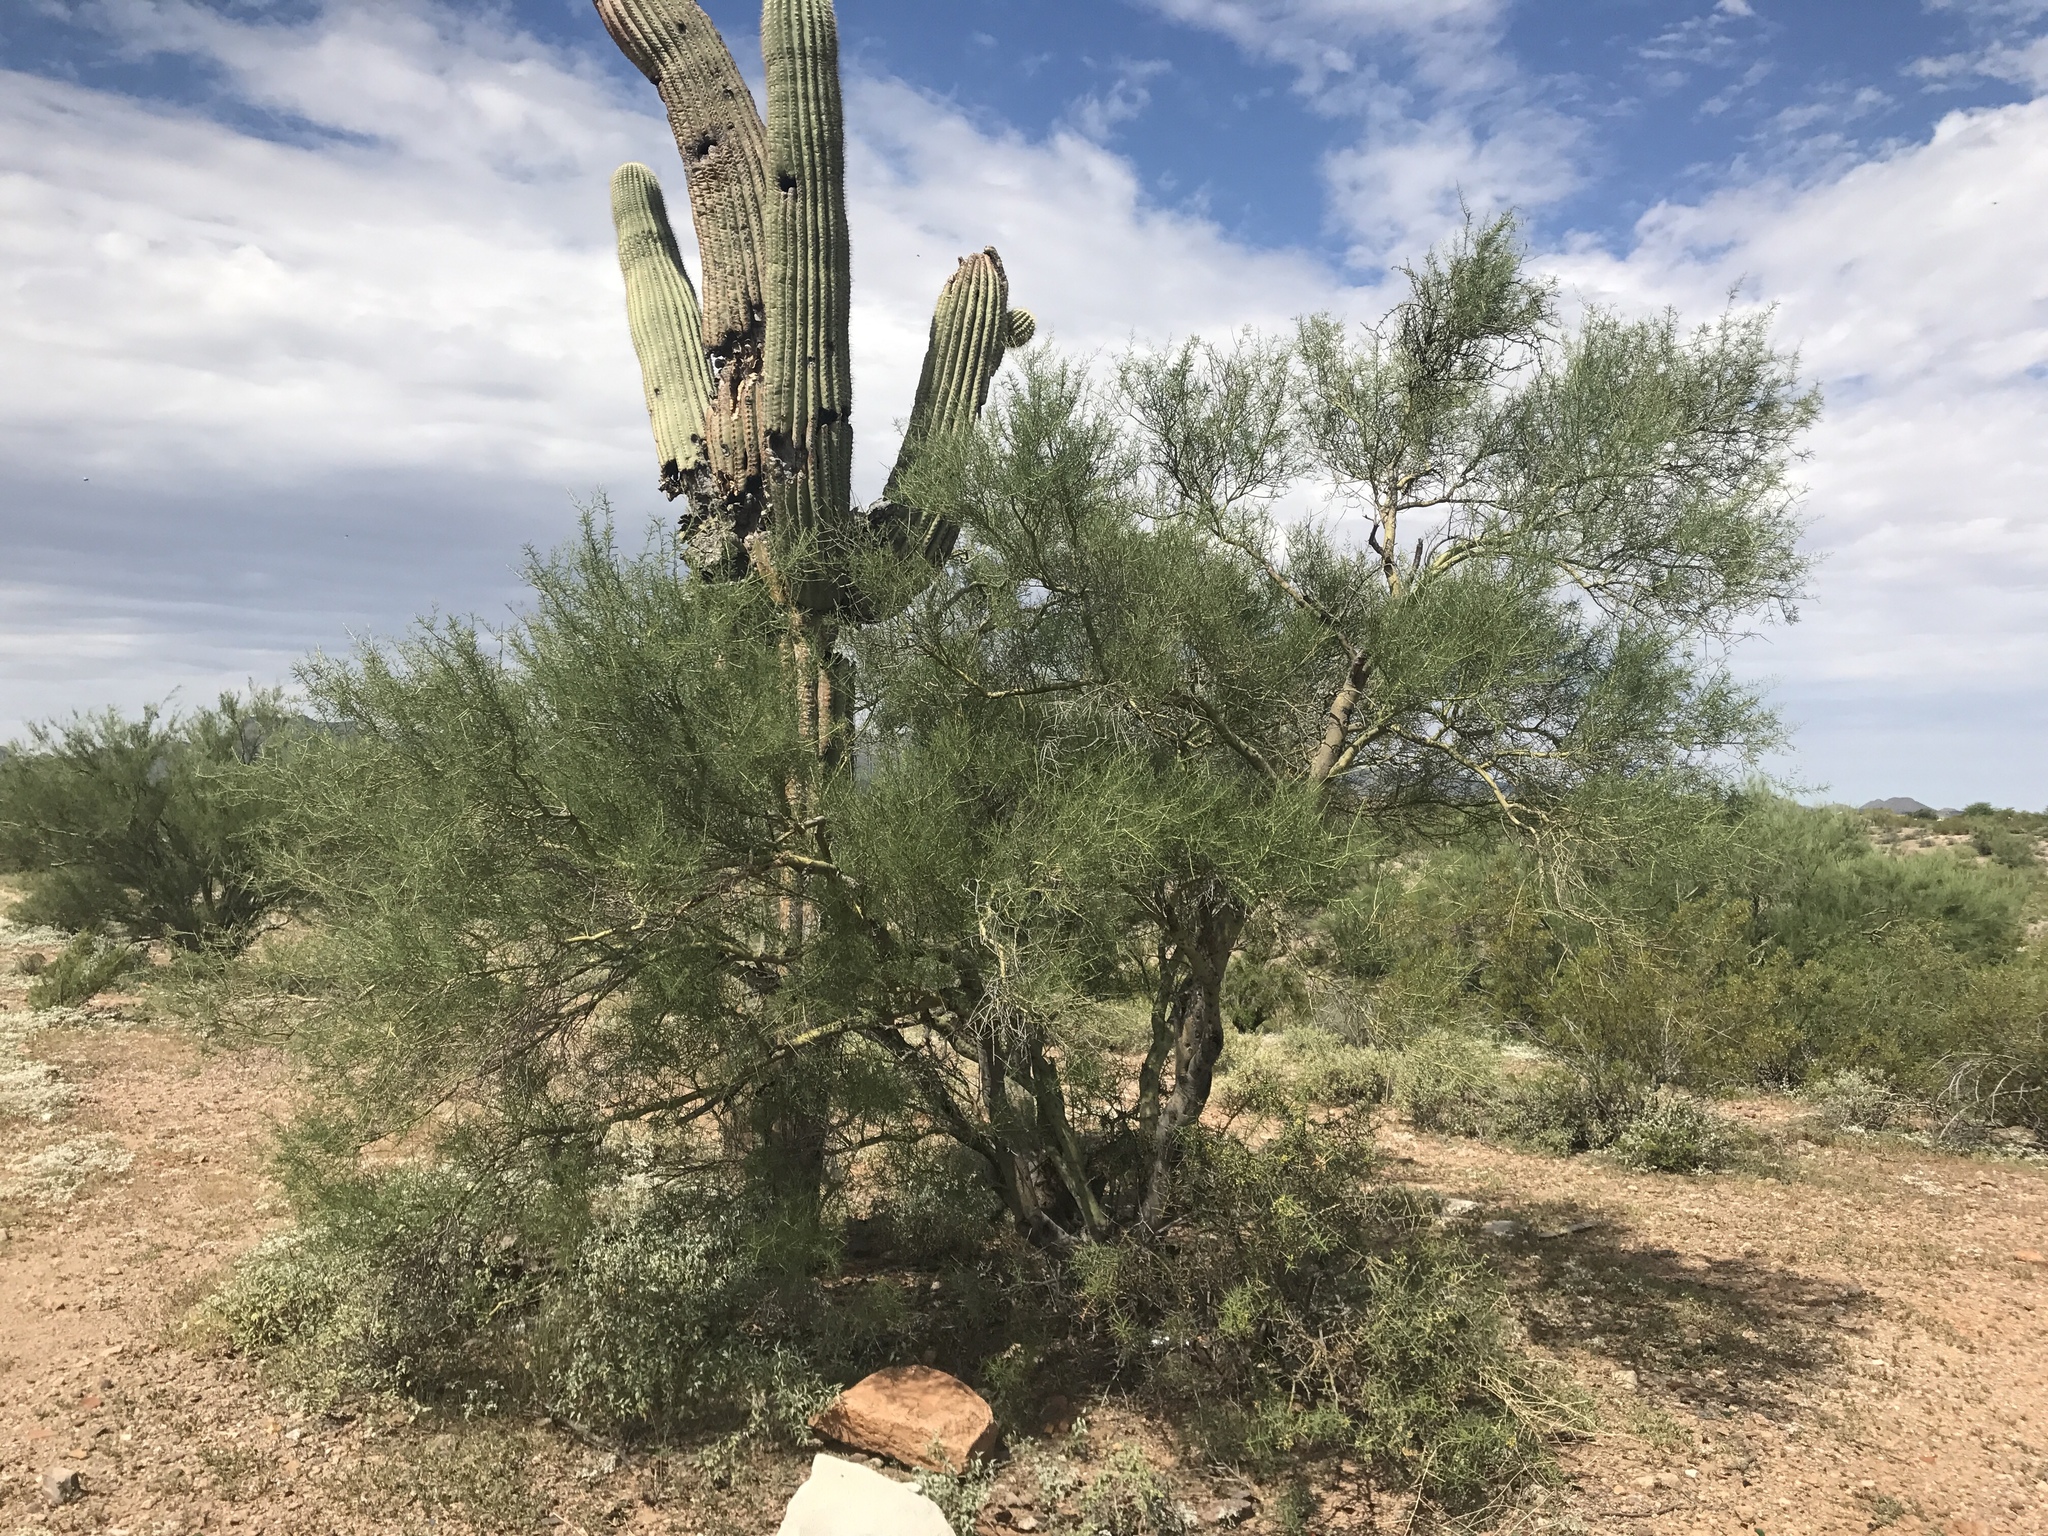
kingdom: Plantae
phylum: Tracheophyta
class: Magnoliopsida
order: Fabales
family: Fabaceae
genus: Parkinsonia
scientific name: Parkinsonia microphylla
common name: Yellow paloverde
